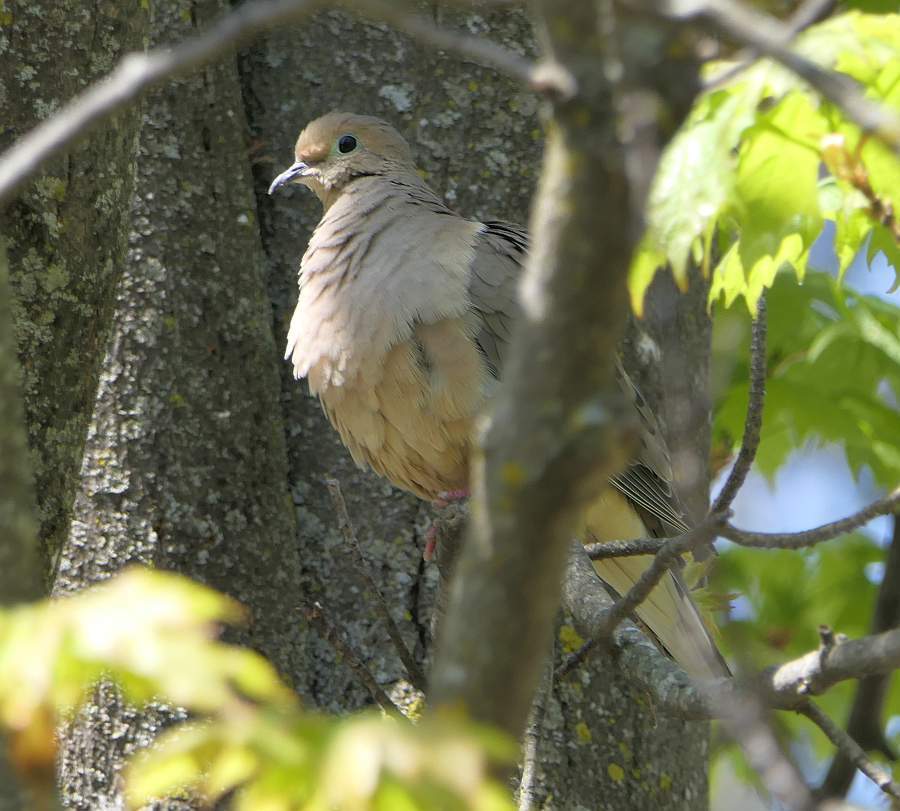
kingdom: Animalia
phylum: Chordata
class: Aves
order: Columbiformes
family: Columbidae
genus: Zenaida
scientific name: Zenaida macroura
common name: Mourning dove
